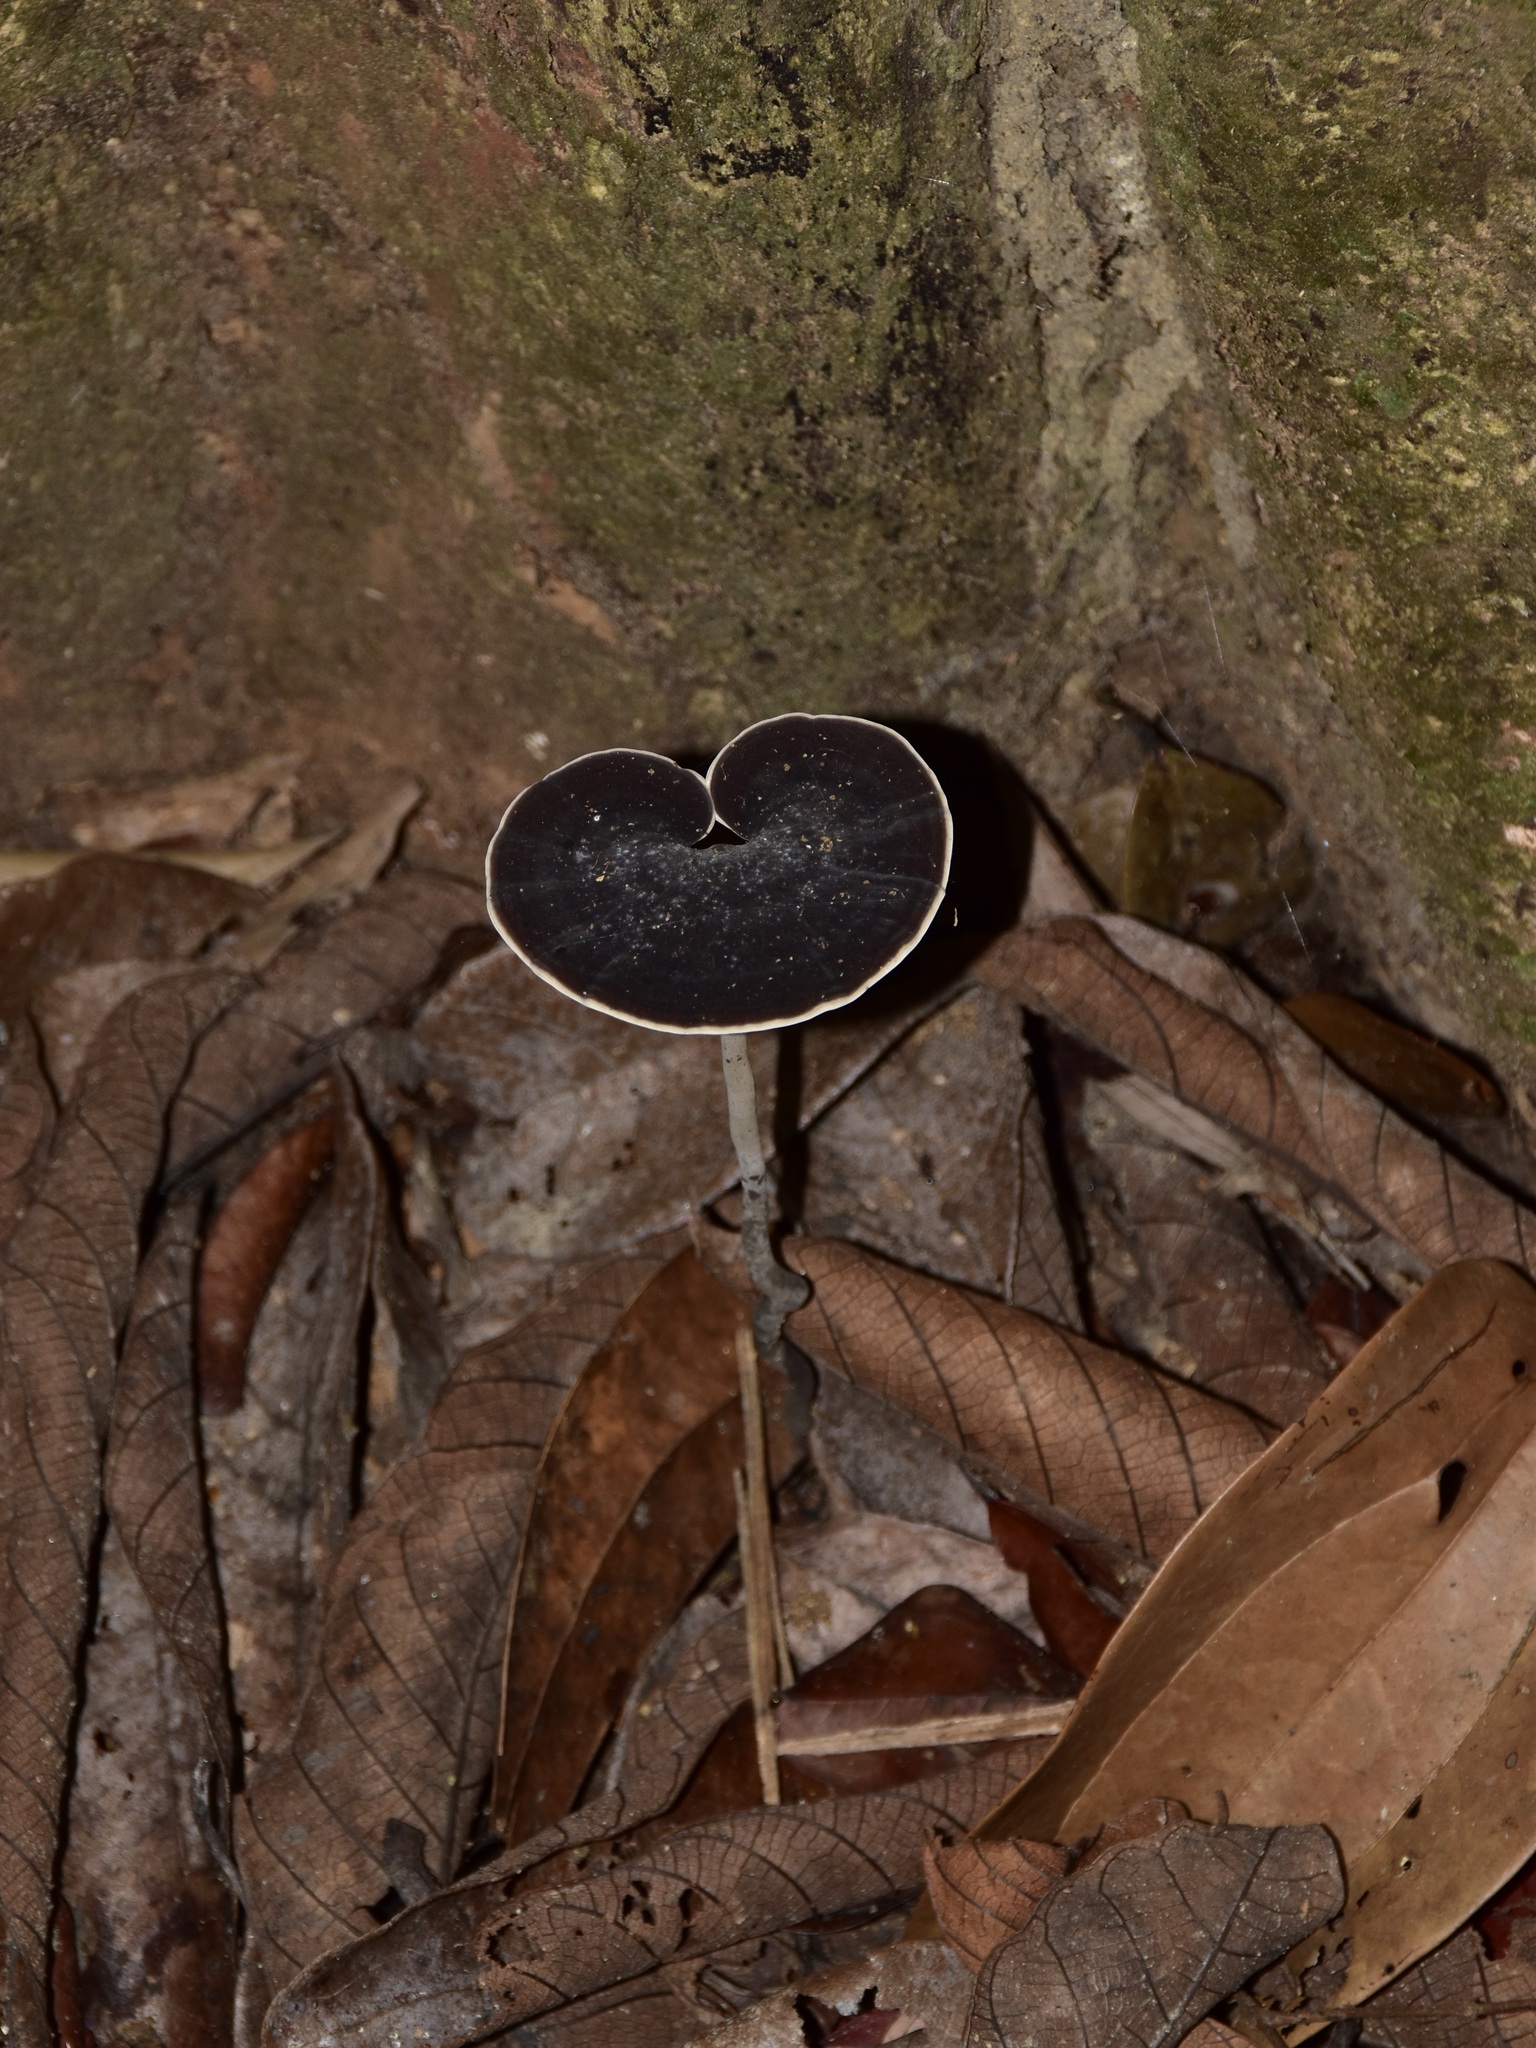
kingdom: Fungi
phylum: Basidiomycota
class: Agaricomycetes
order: Polyporales
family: Ganodermataceae
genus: Sanguinoderma
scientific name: Sanguinoderma rugosum
